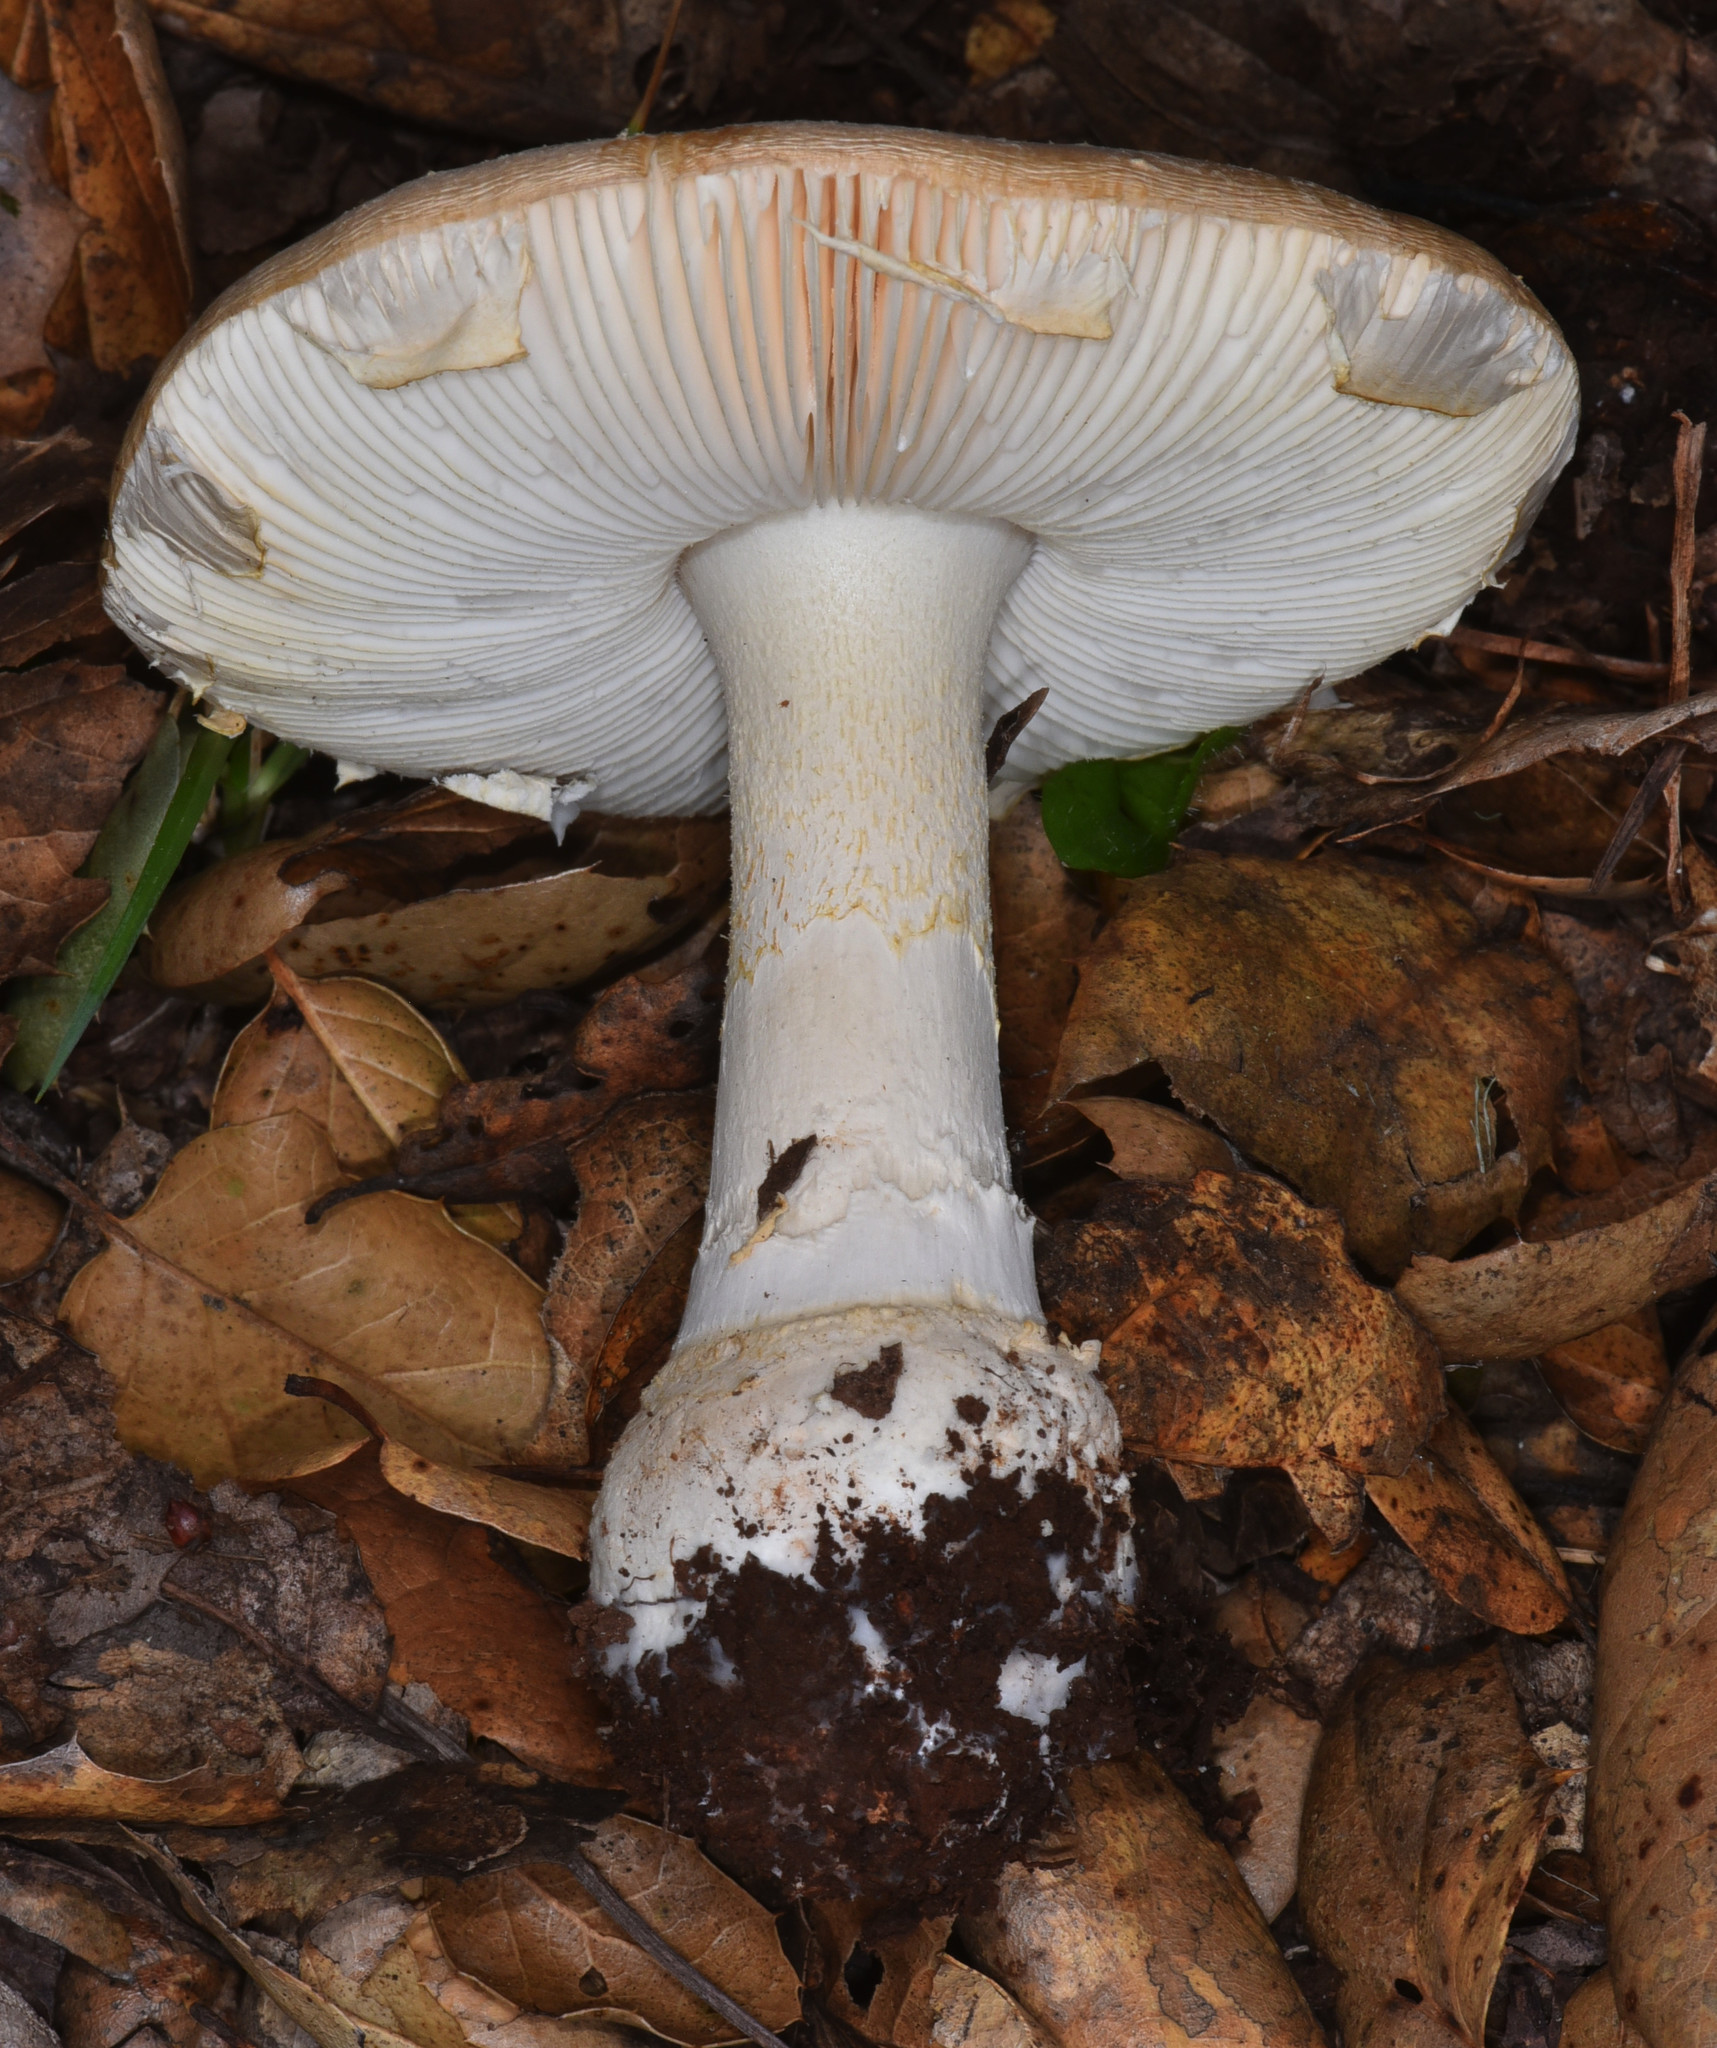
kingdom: Fungi
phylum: Basidiomycota
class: Agaricomycetes
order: Agaricales
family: Amanitaceae
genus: Amanita
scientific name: Amanita pantherina
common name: Panthercap
